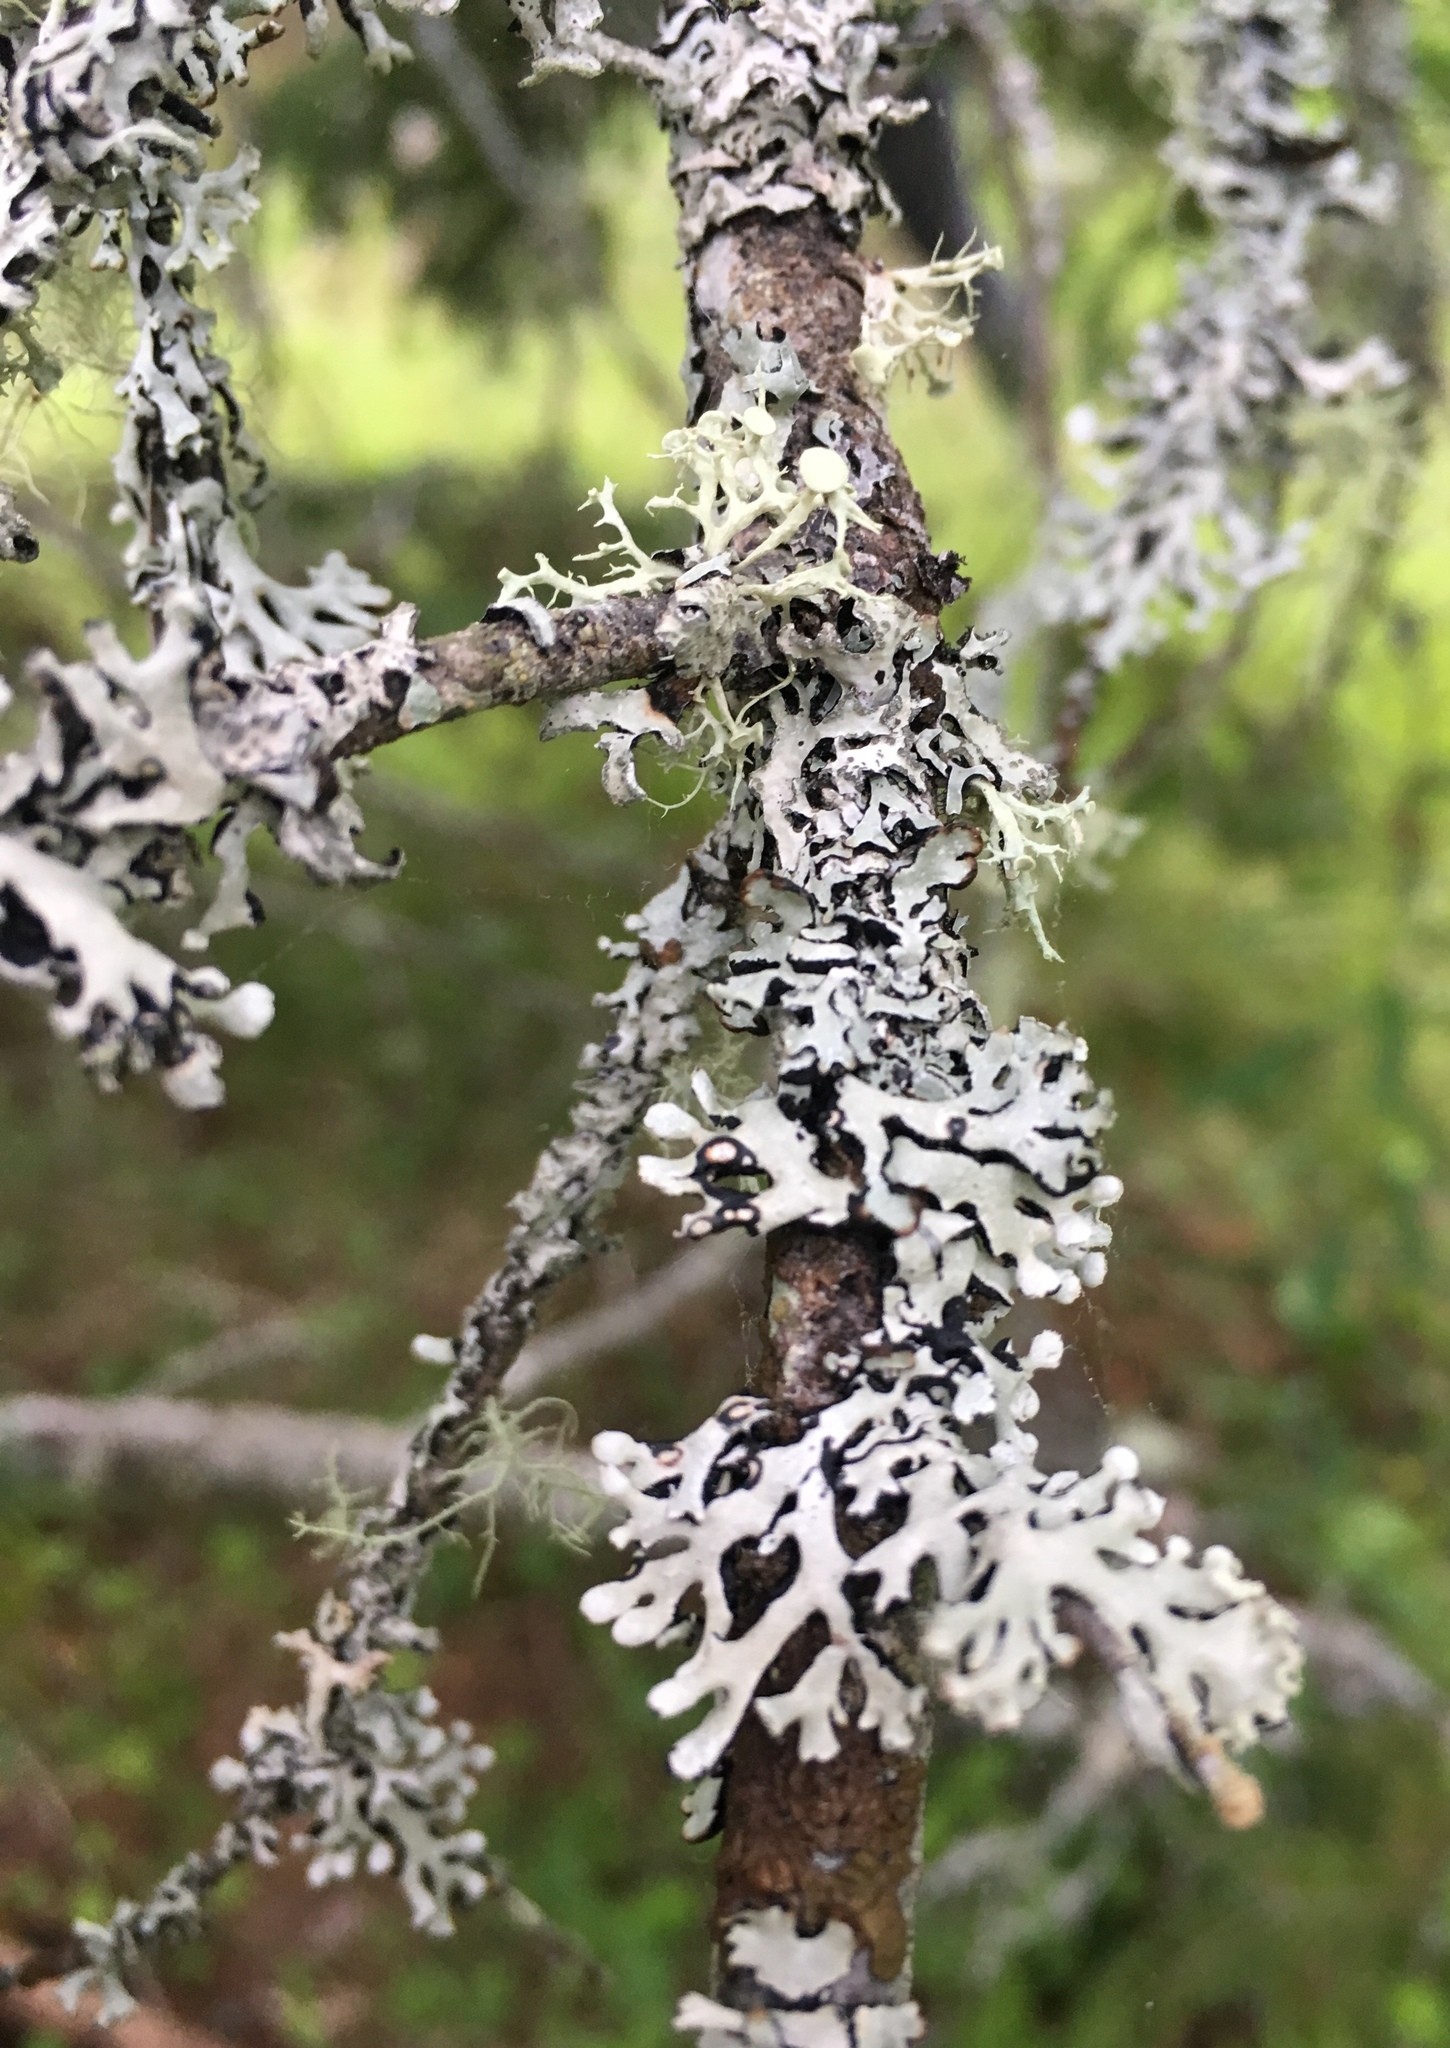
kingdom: Fungi
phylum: Ascomycota
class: Lecanoromycetes
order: Lecanorales
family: Parmeliaceae
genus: Hypogymnia
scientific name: Hypogymnia physodes
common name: Dark crottle
